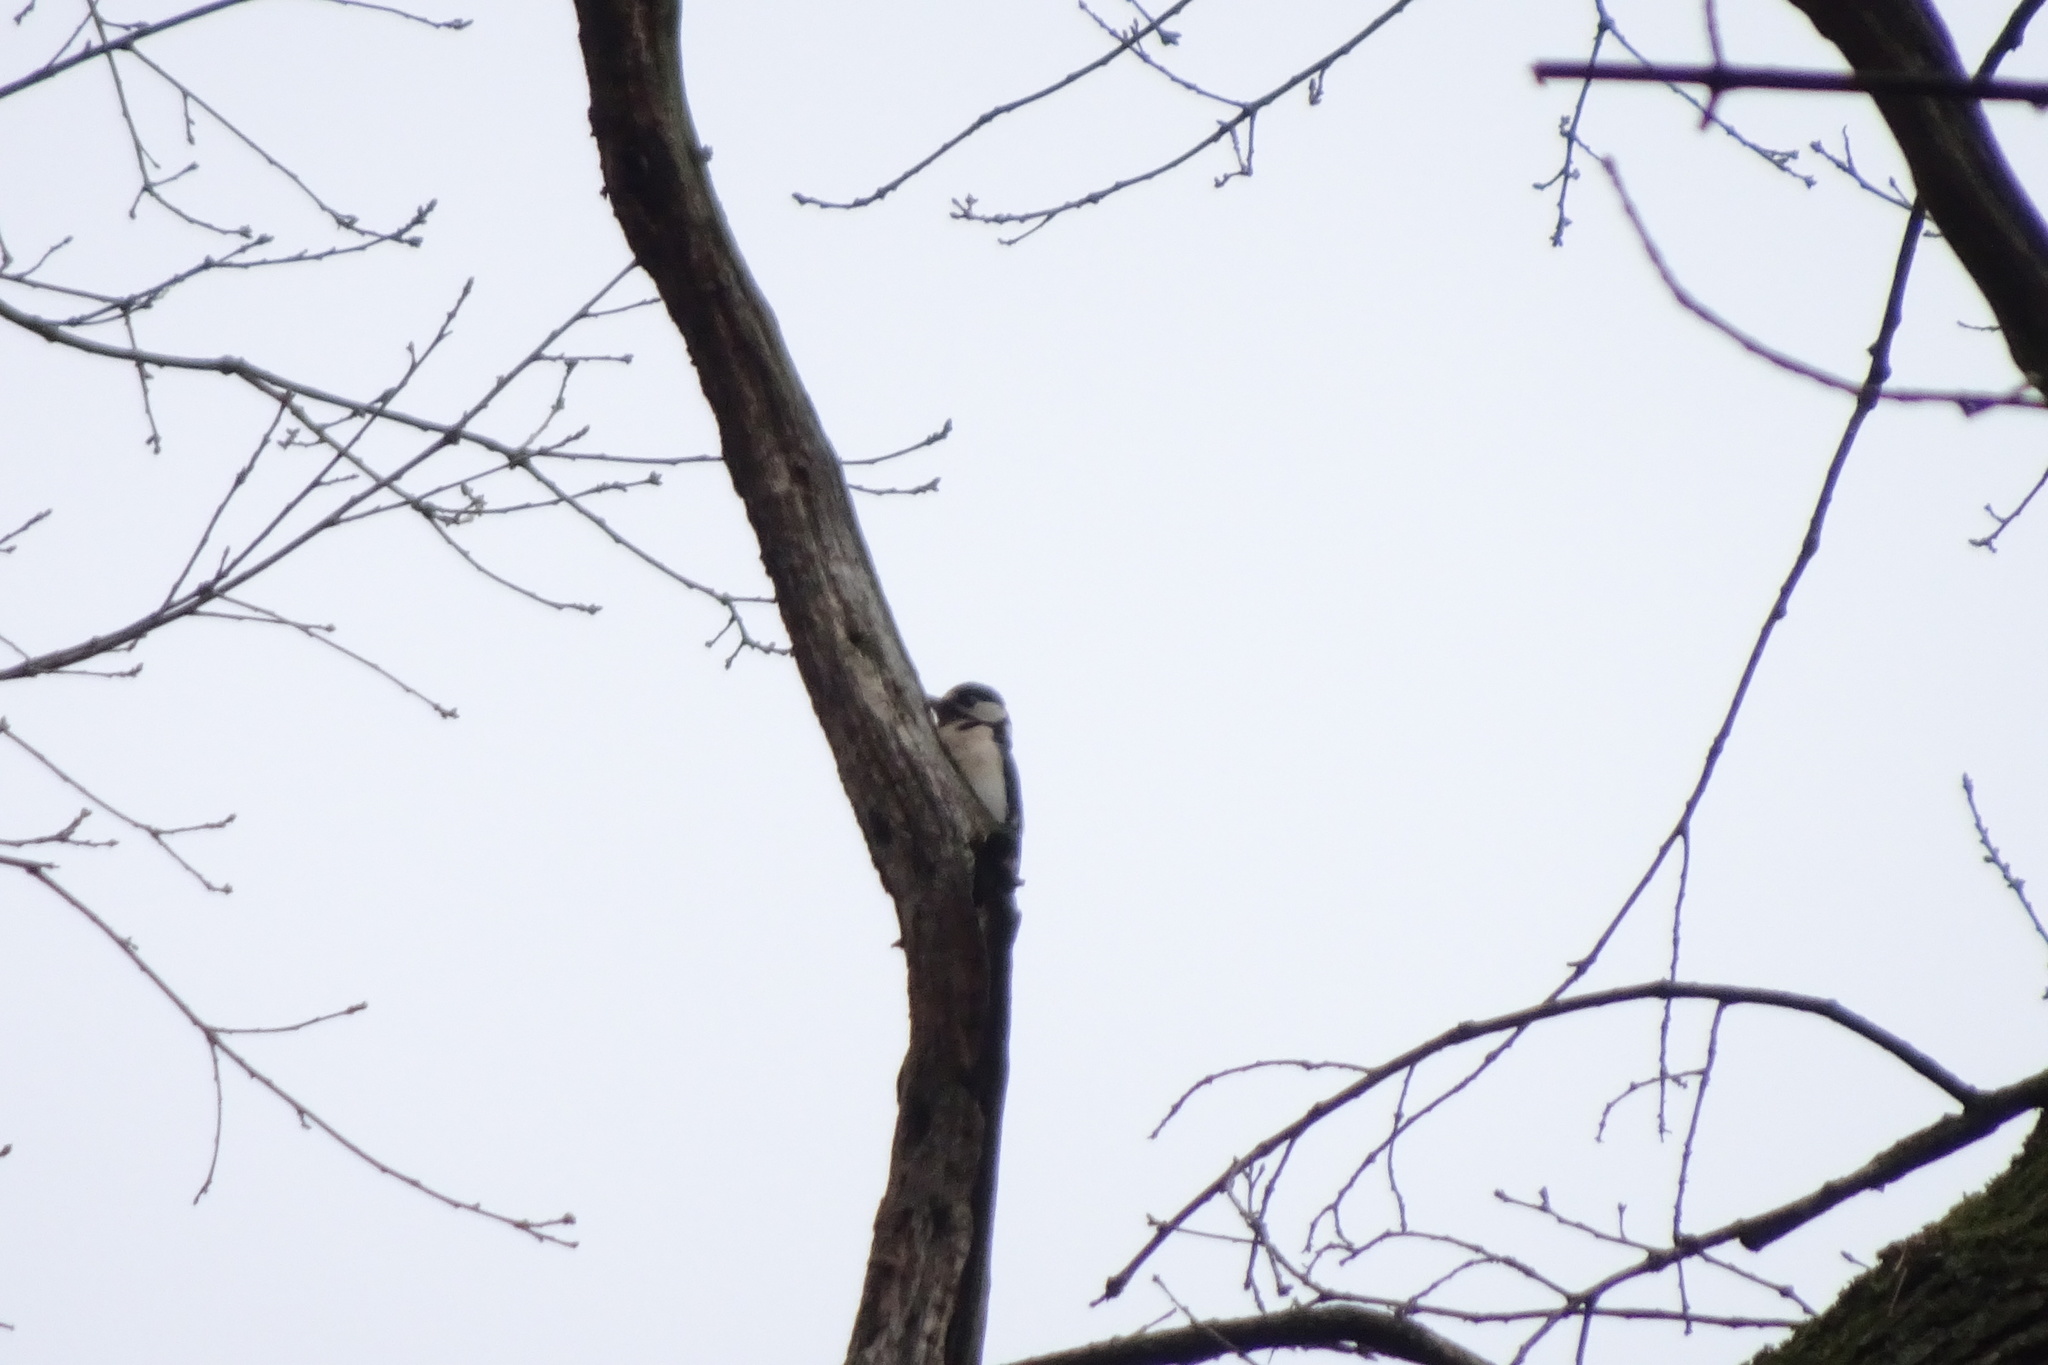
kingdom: Animalia
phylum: Chordata
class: Aves
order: Piciformes
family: Picidae
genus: Dendrocopos
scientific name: Dendrocopos major
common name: Great spotted woodpecker
